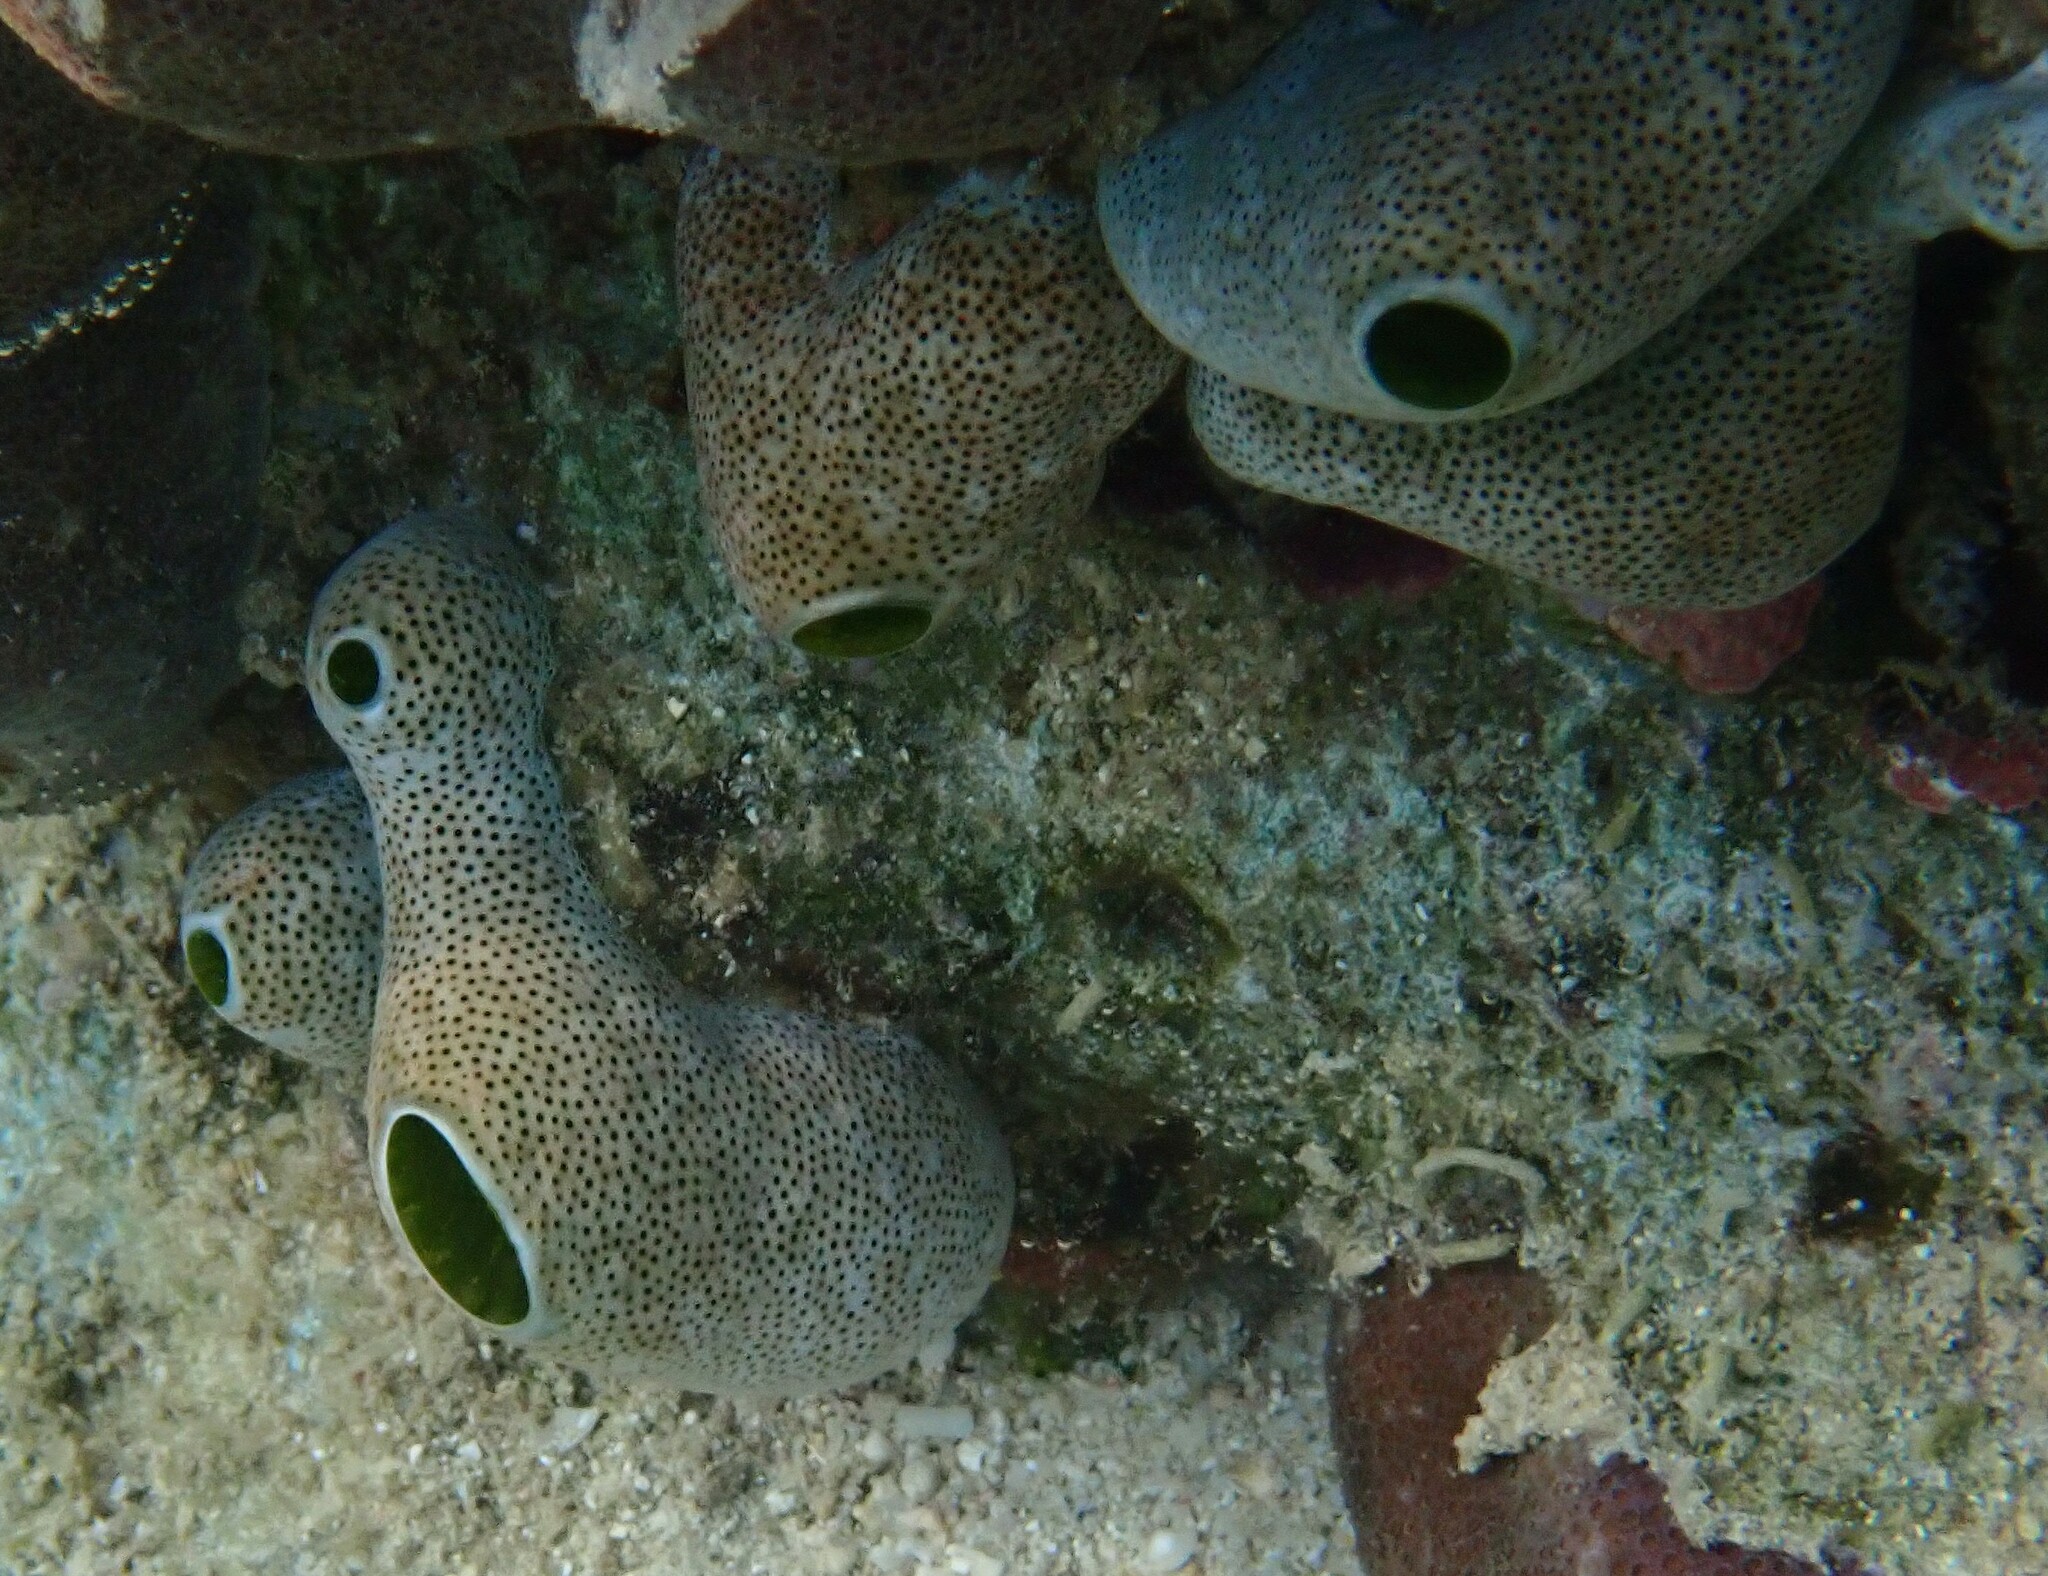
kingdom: Animalia
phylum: Chordata
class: Ascidiacea
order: Aplousobranchia
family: Didemnidae
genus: Didemnum
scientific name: Didemnum molle
